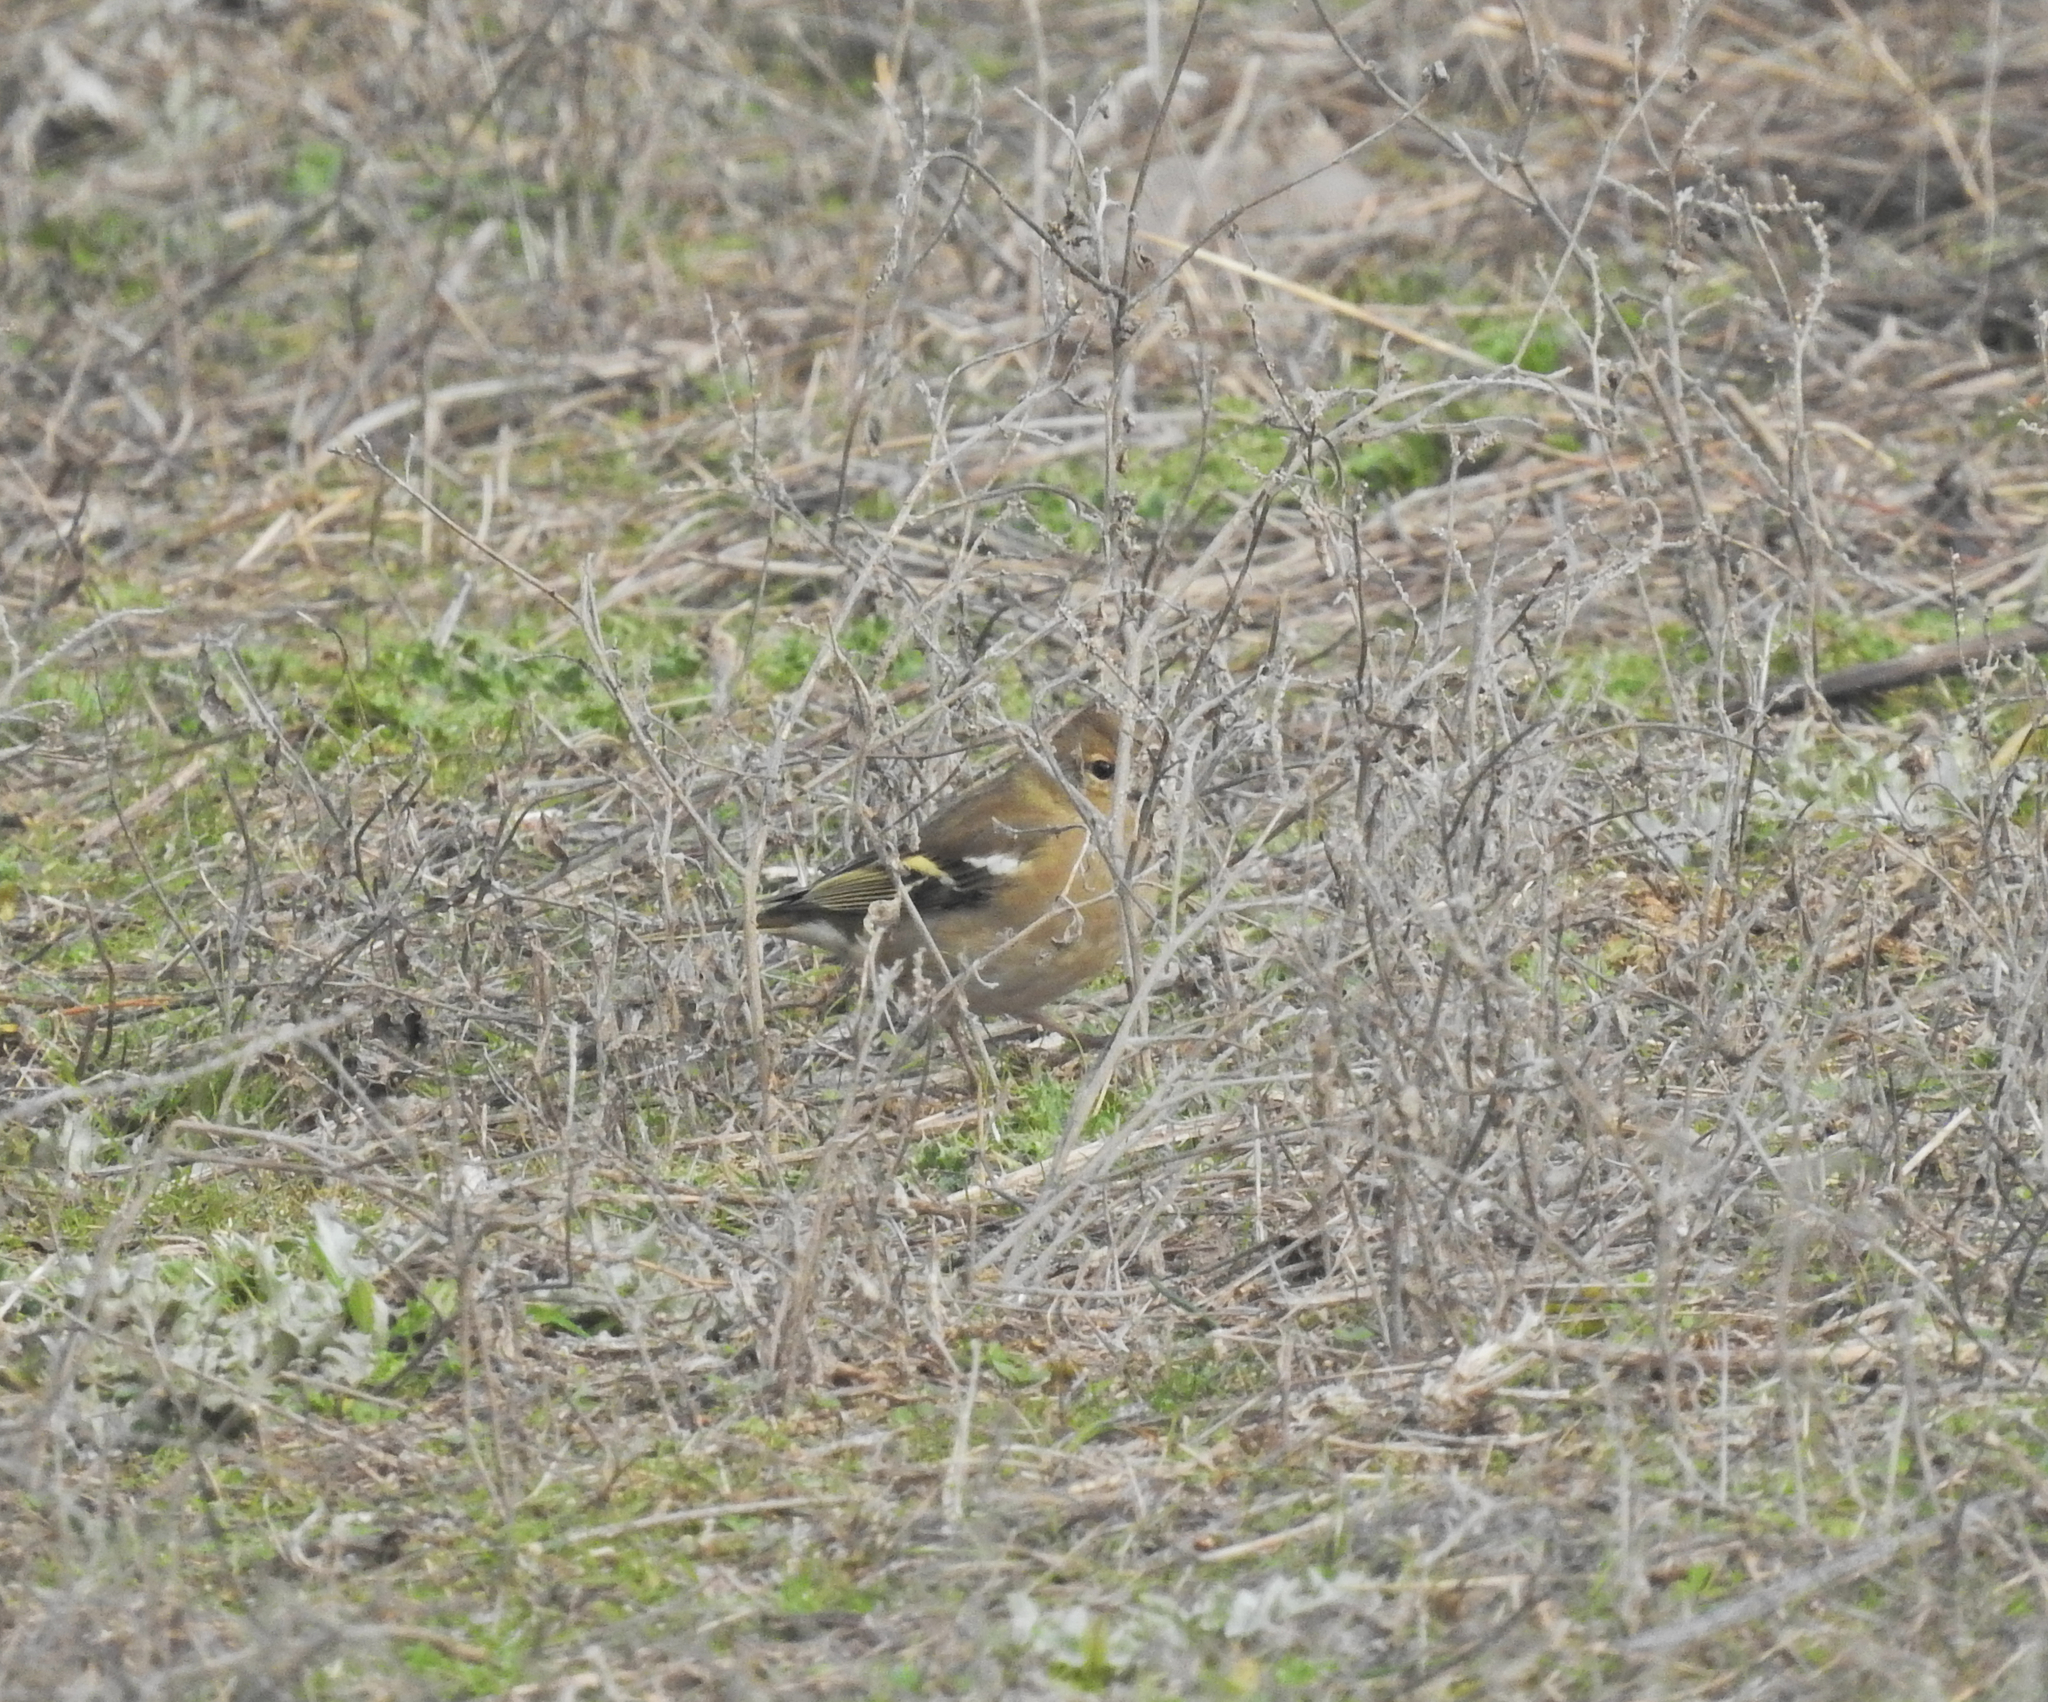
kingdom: Animalia
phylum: Chordata
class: Aves
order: Passeriformes
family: Fringillidae
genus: Fringilla
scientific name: Fringilla coelebs
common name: Common chaffinch
